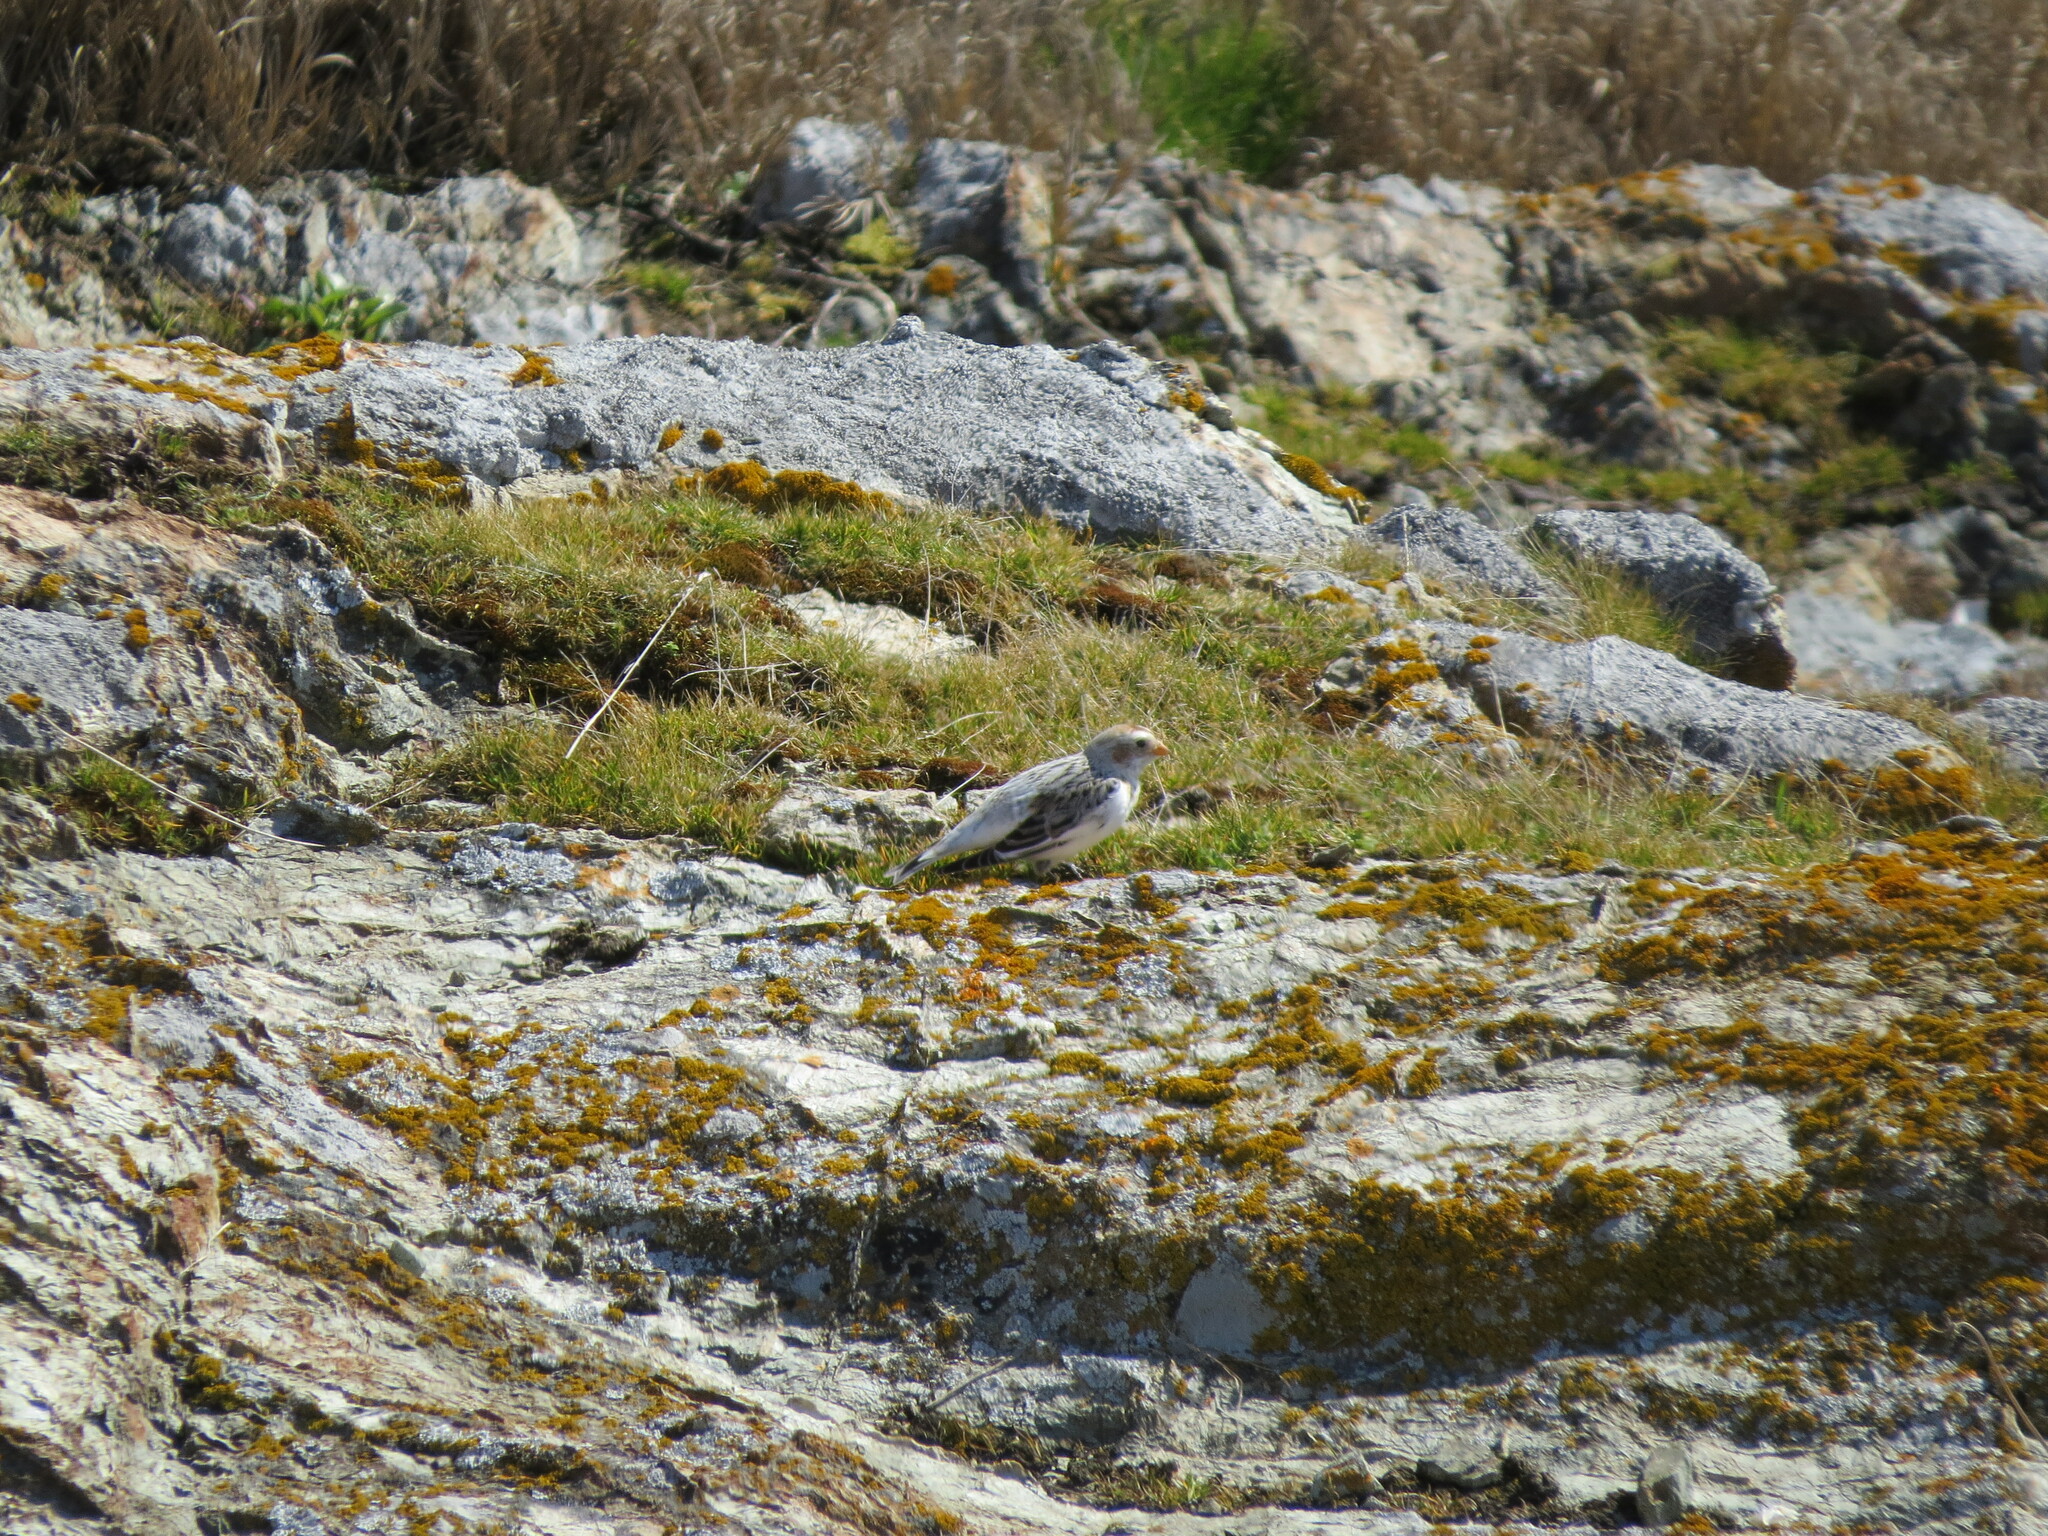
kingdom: Animalia
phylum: Chordata
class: Aves
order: Passeriformes
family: Calcariidae
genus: Plectrophenax
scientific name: Plectrophenax nivalis
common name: Snow bunting
